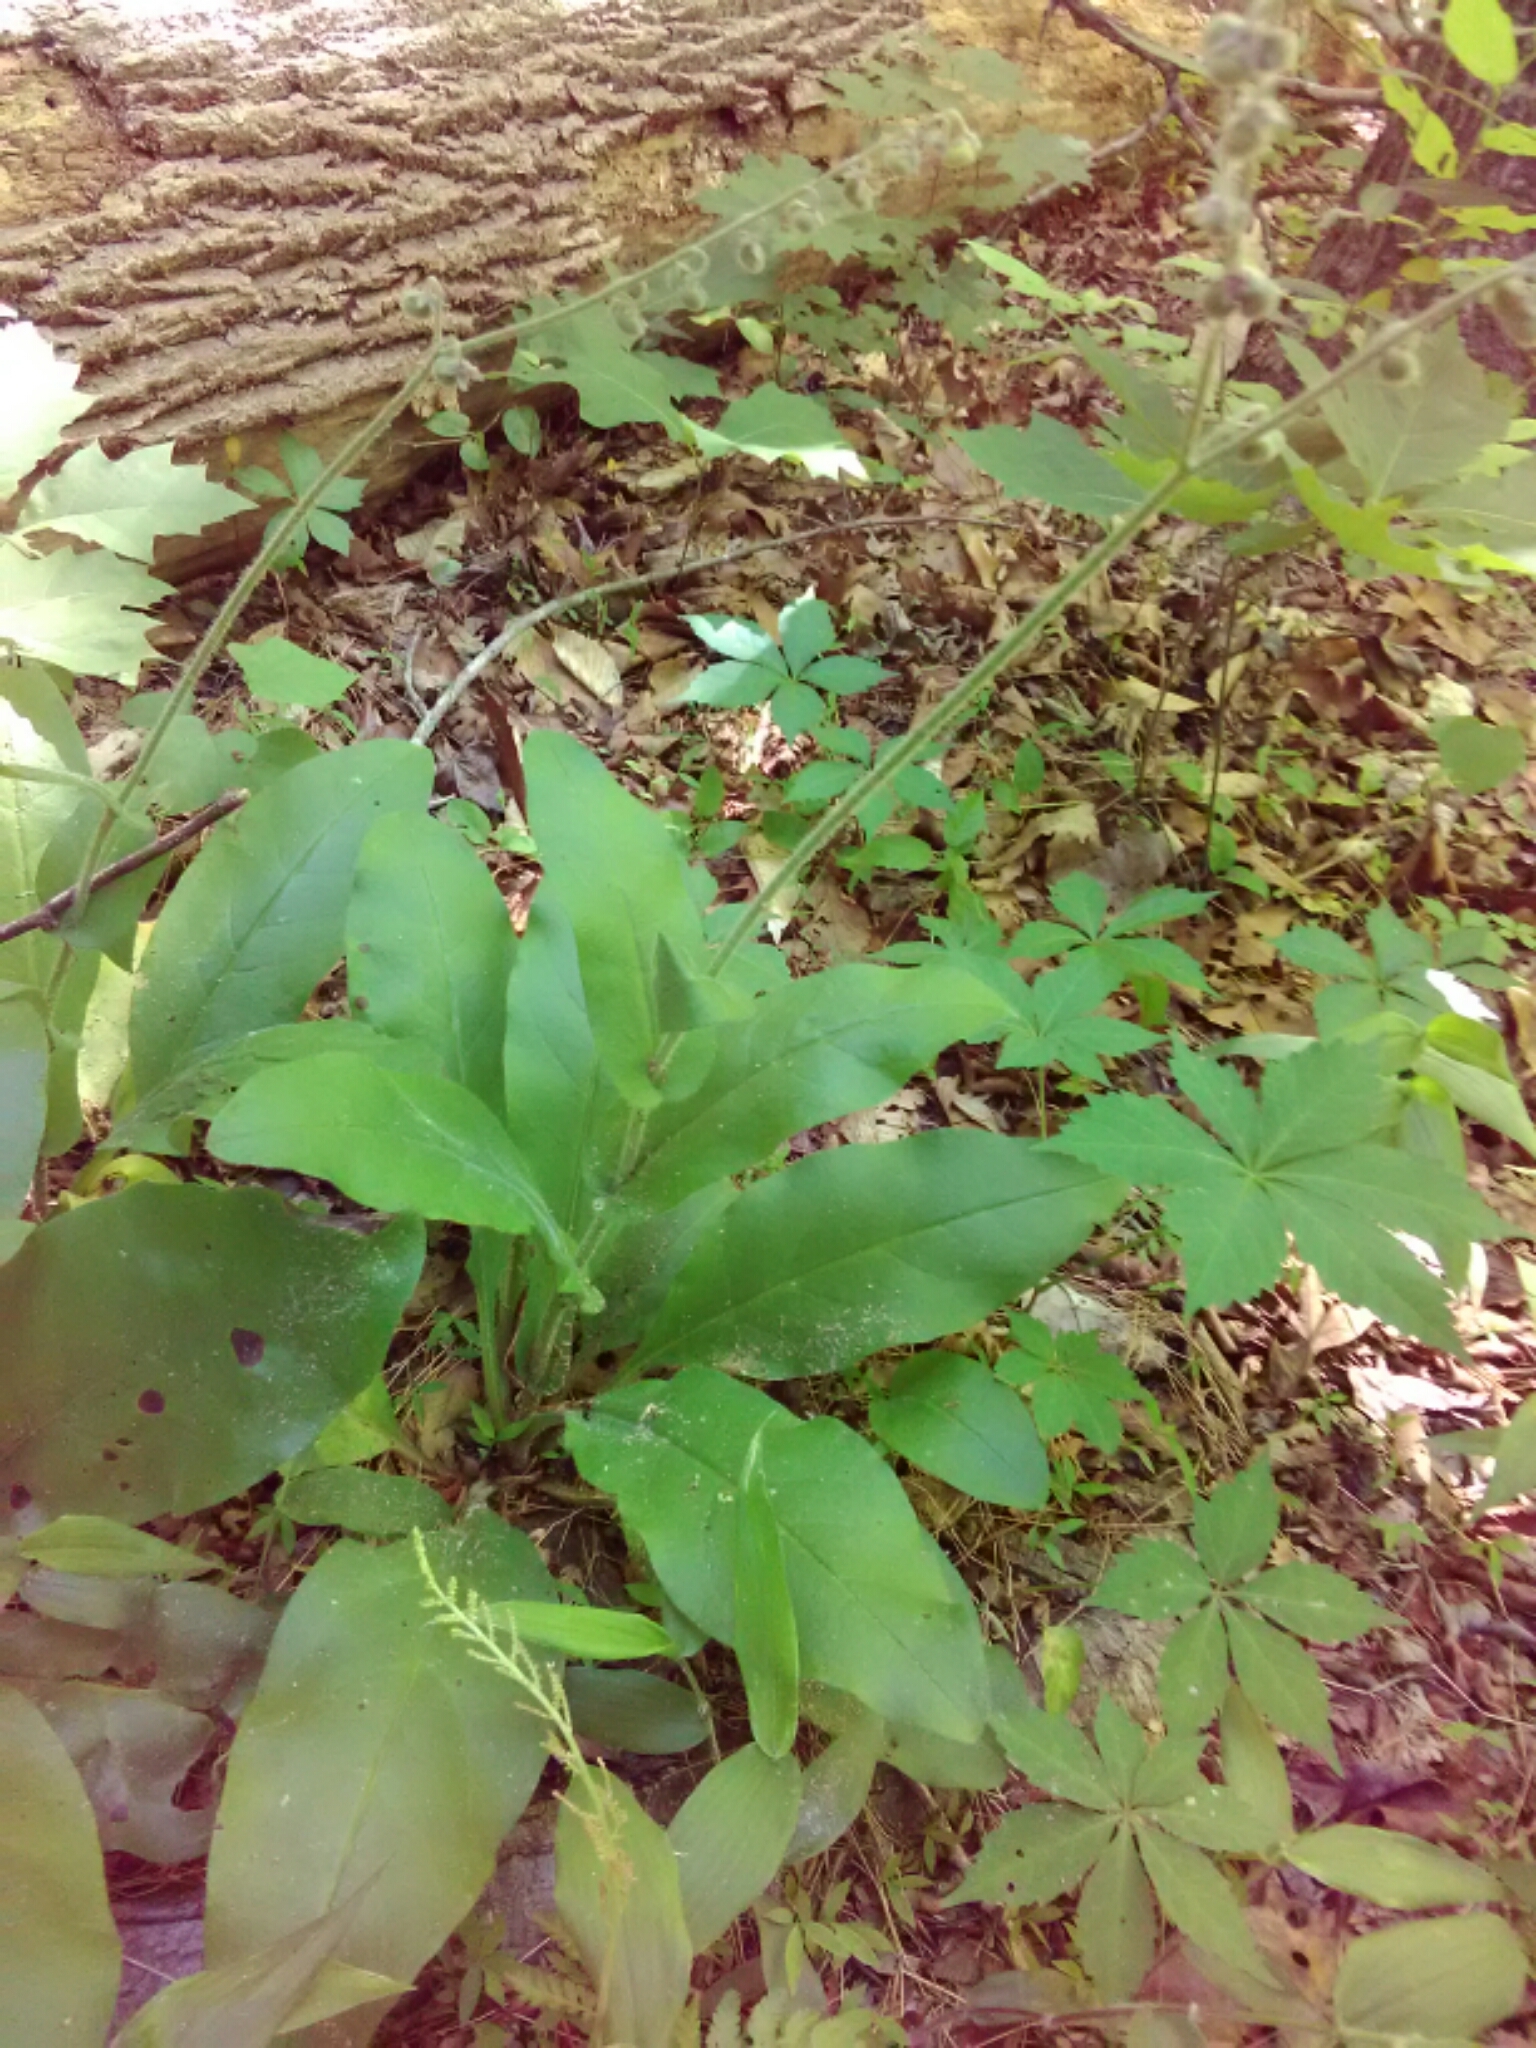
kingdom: Plantae
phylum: Tracheophyta
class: Magnoliopsida
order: Boraginales
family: Boraginaceae
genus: Andersonglossum
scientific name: Andersonglossum virginianum
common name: Wild comfrey
